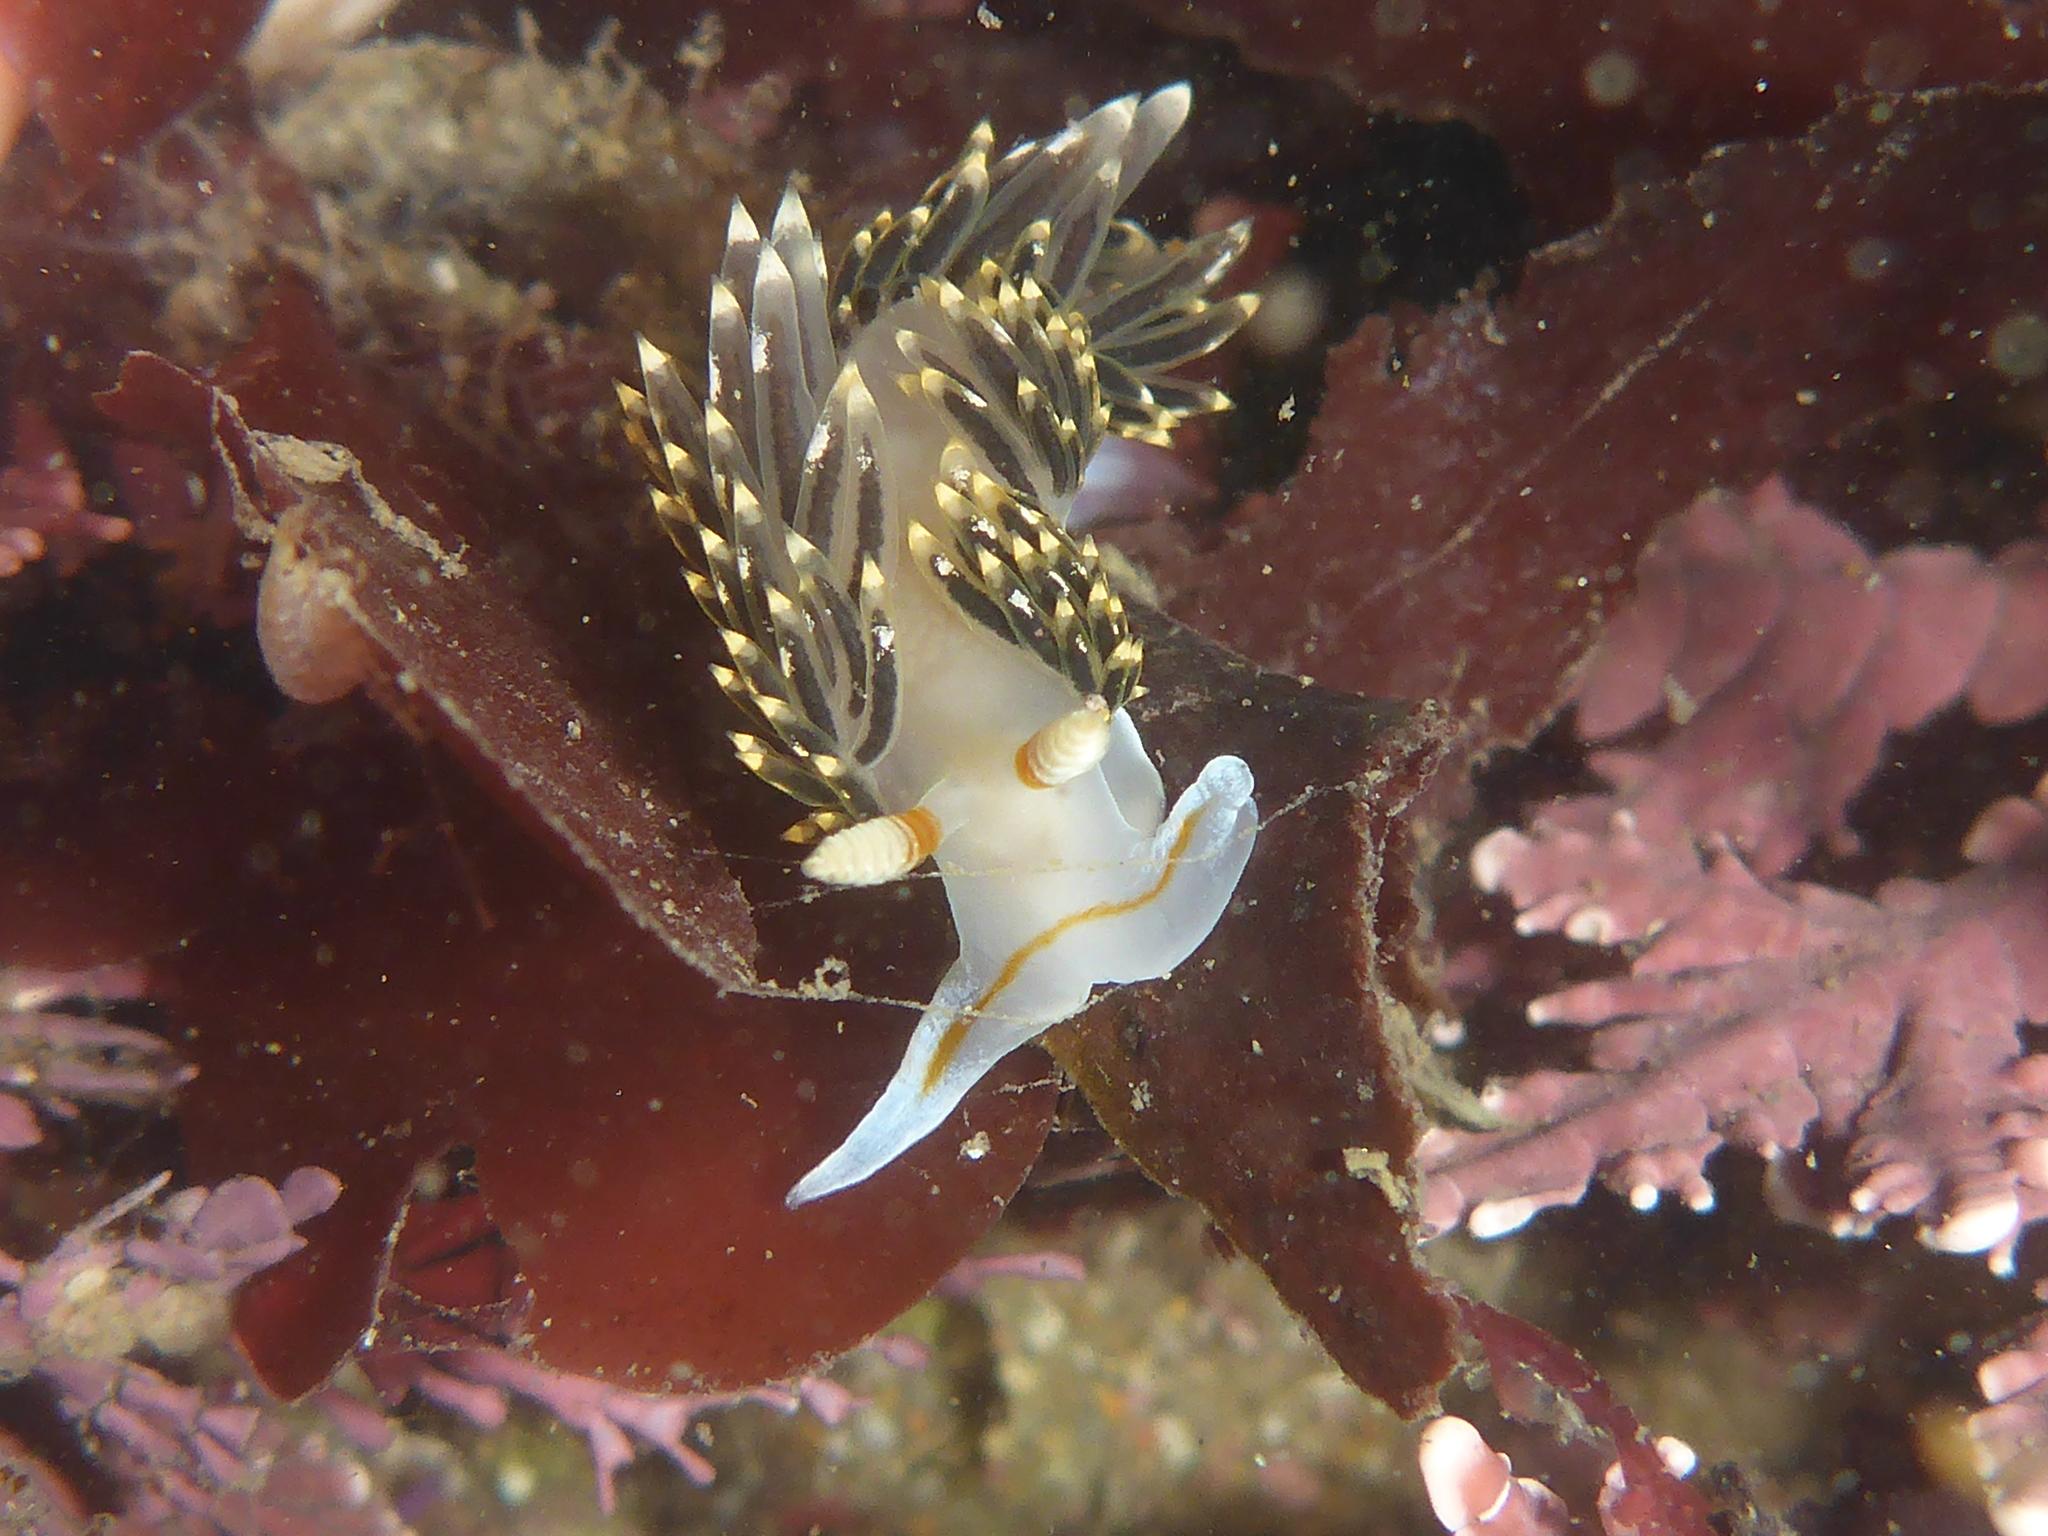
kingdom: Animalia
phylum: Mollusca
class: Gastropoda
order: Nudibranchia
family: Facelinidae
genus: Phidiana
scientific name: Phidiana hiltoni
